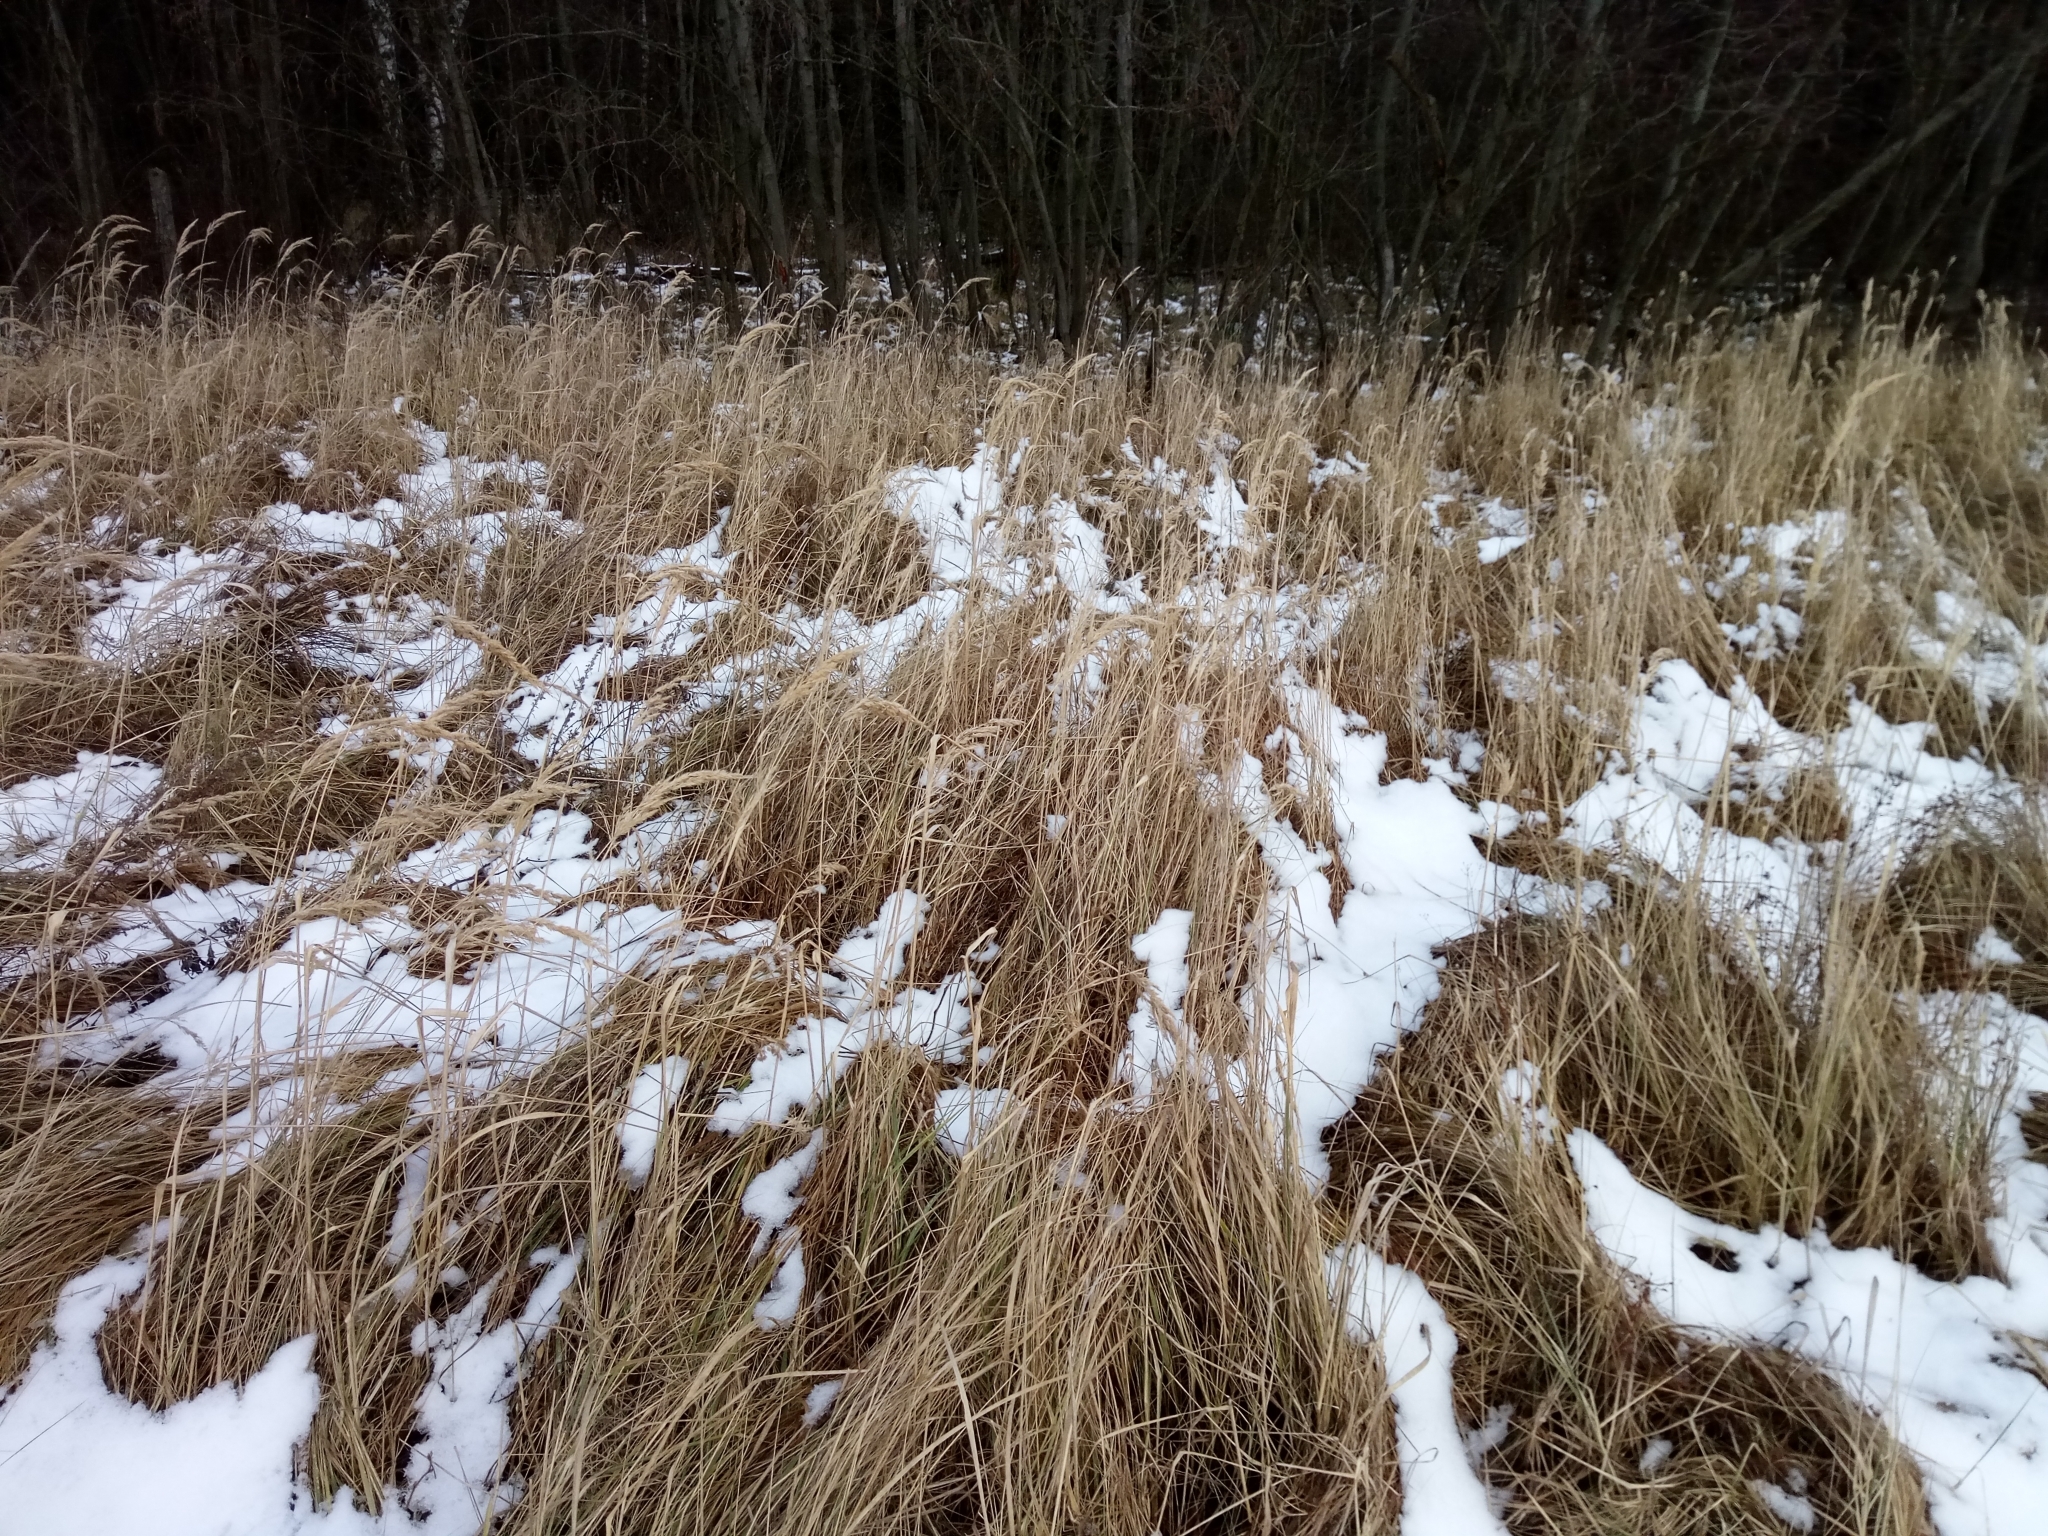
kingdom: Plantae
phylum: Tracheophyta
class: Liliopsida
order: Poales
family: Poaceae
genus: Calamagrostis
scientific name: Calamagrostis epigejos
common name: Wood small-reed
